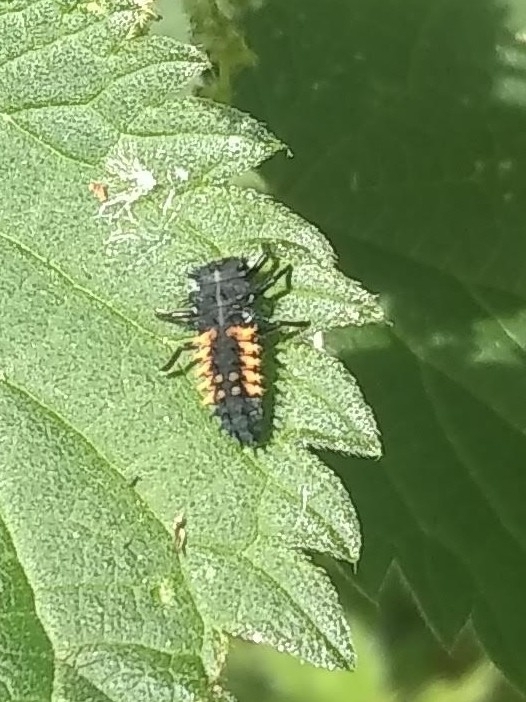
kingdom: Animalia
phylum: Arthropoda
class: Insecta
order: Coleoptera
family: Coccinellidae
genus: Harmonia
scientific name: Harmonia axyridis
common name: Harlequin ladybird
